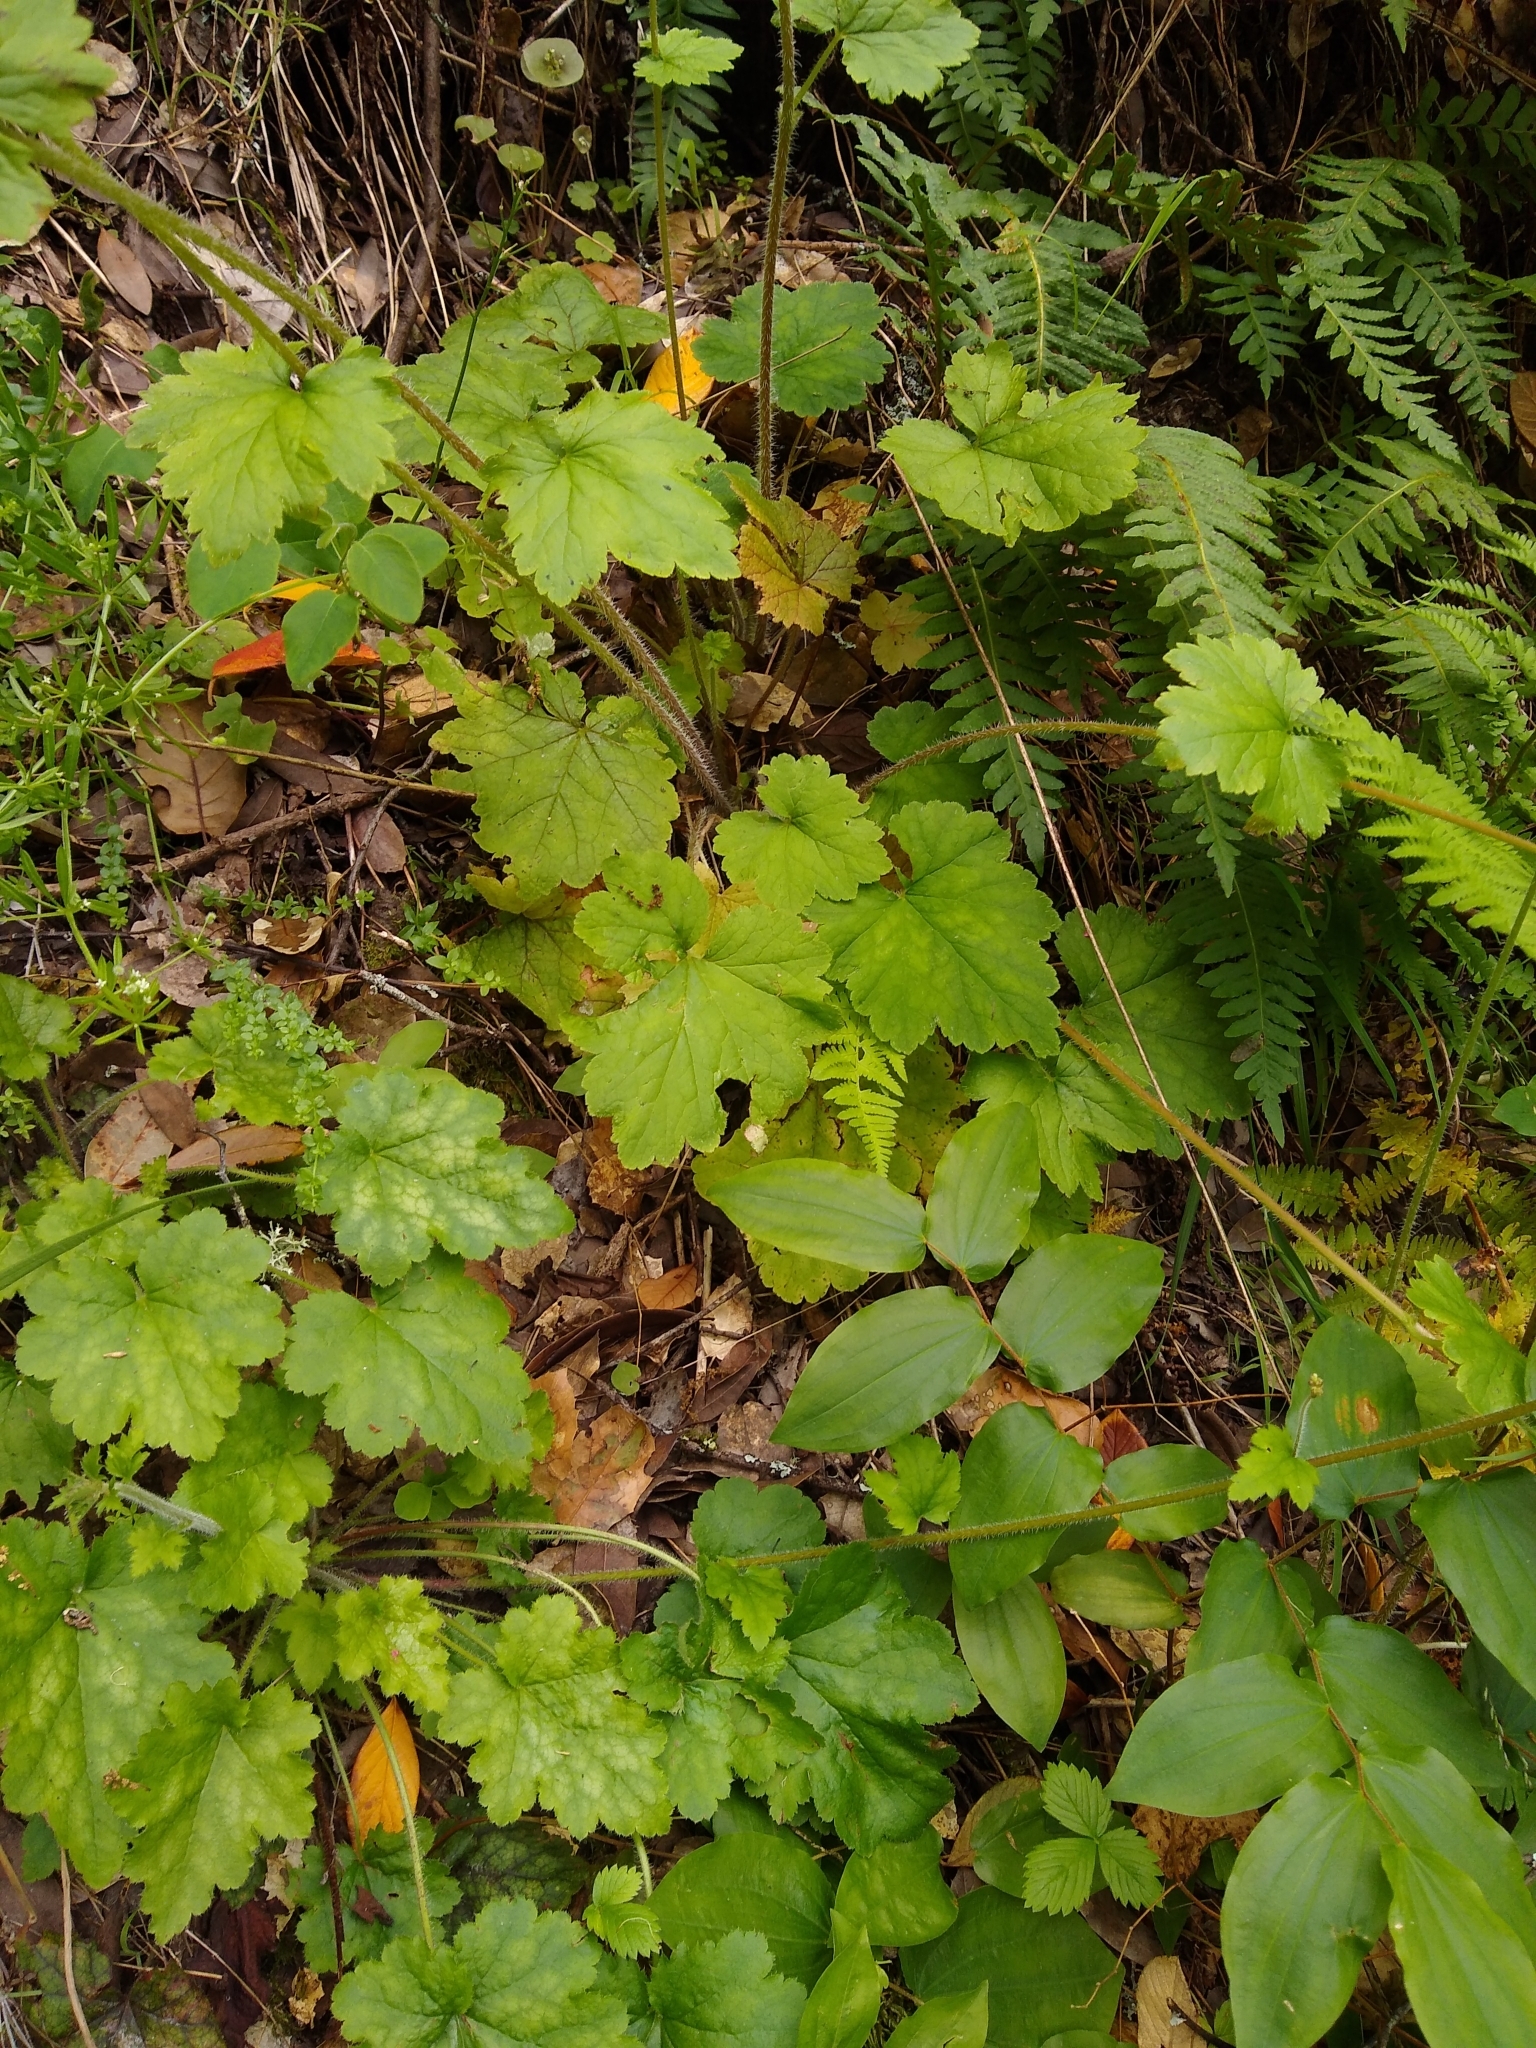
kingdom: Plantae
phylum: Tracheophyta
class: Magnoliopsida
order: Saxifragales
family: Saxifragaceae
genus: Tellima
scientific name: Tellima grandiflora
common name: Fringecups
